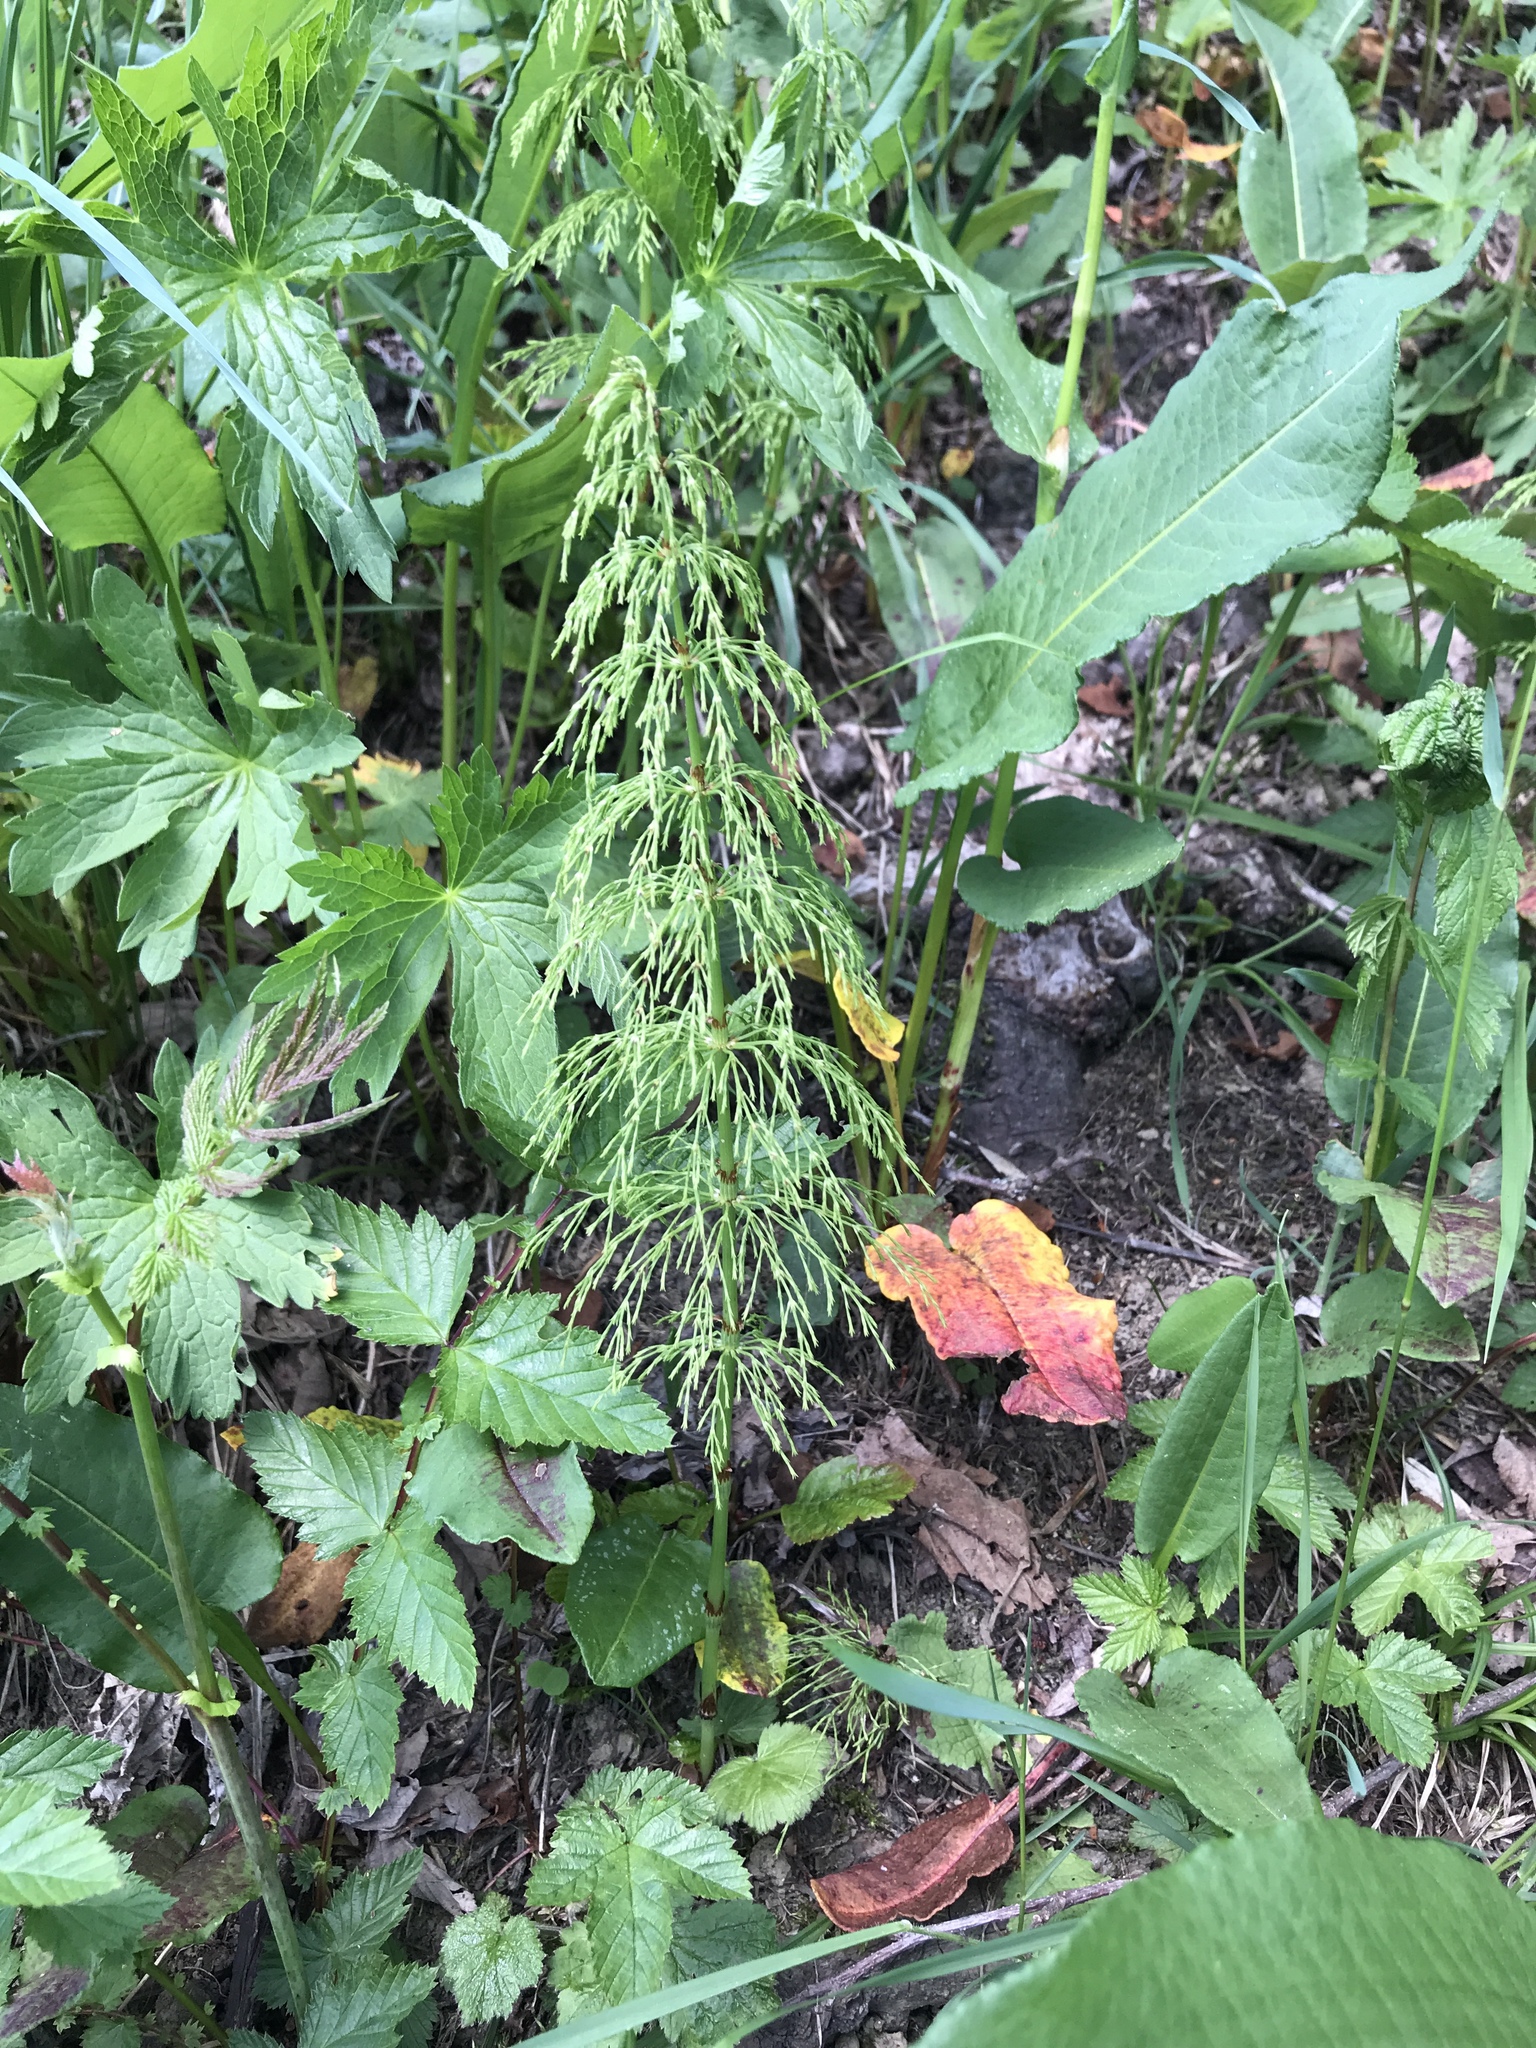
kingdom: Plantae
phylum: Tracheophyta
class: Polypodiopsida
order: Equisetales
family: Equisetaceae
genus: Equisetum
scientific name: Equisetum sylvaticum
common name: Wood horsetail
